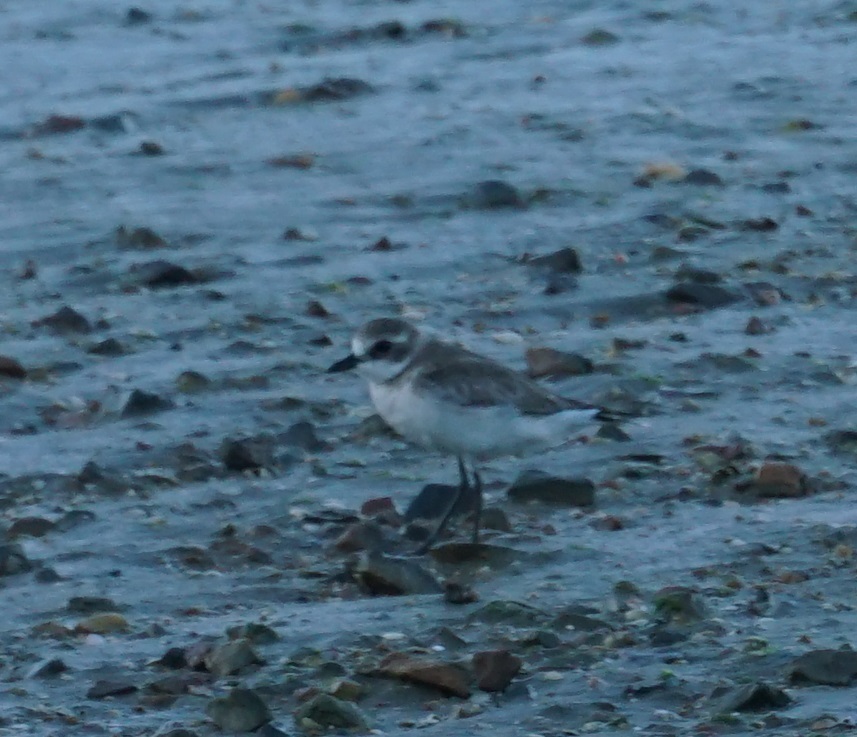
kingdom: Animalia
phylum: Chordata
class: Aves
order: Charadriiformes
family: Charadriidae
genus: Anarhynchus
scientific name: Anarhynchus
